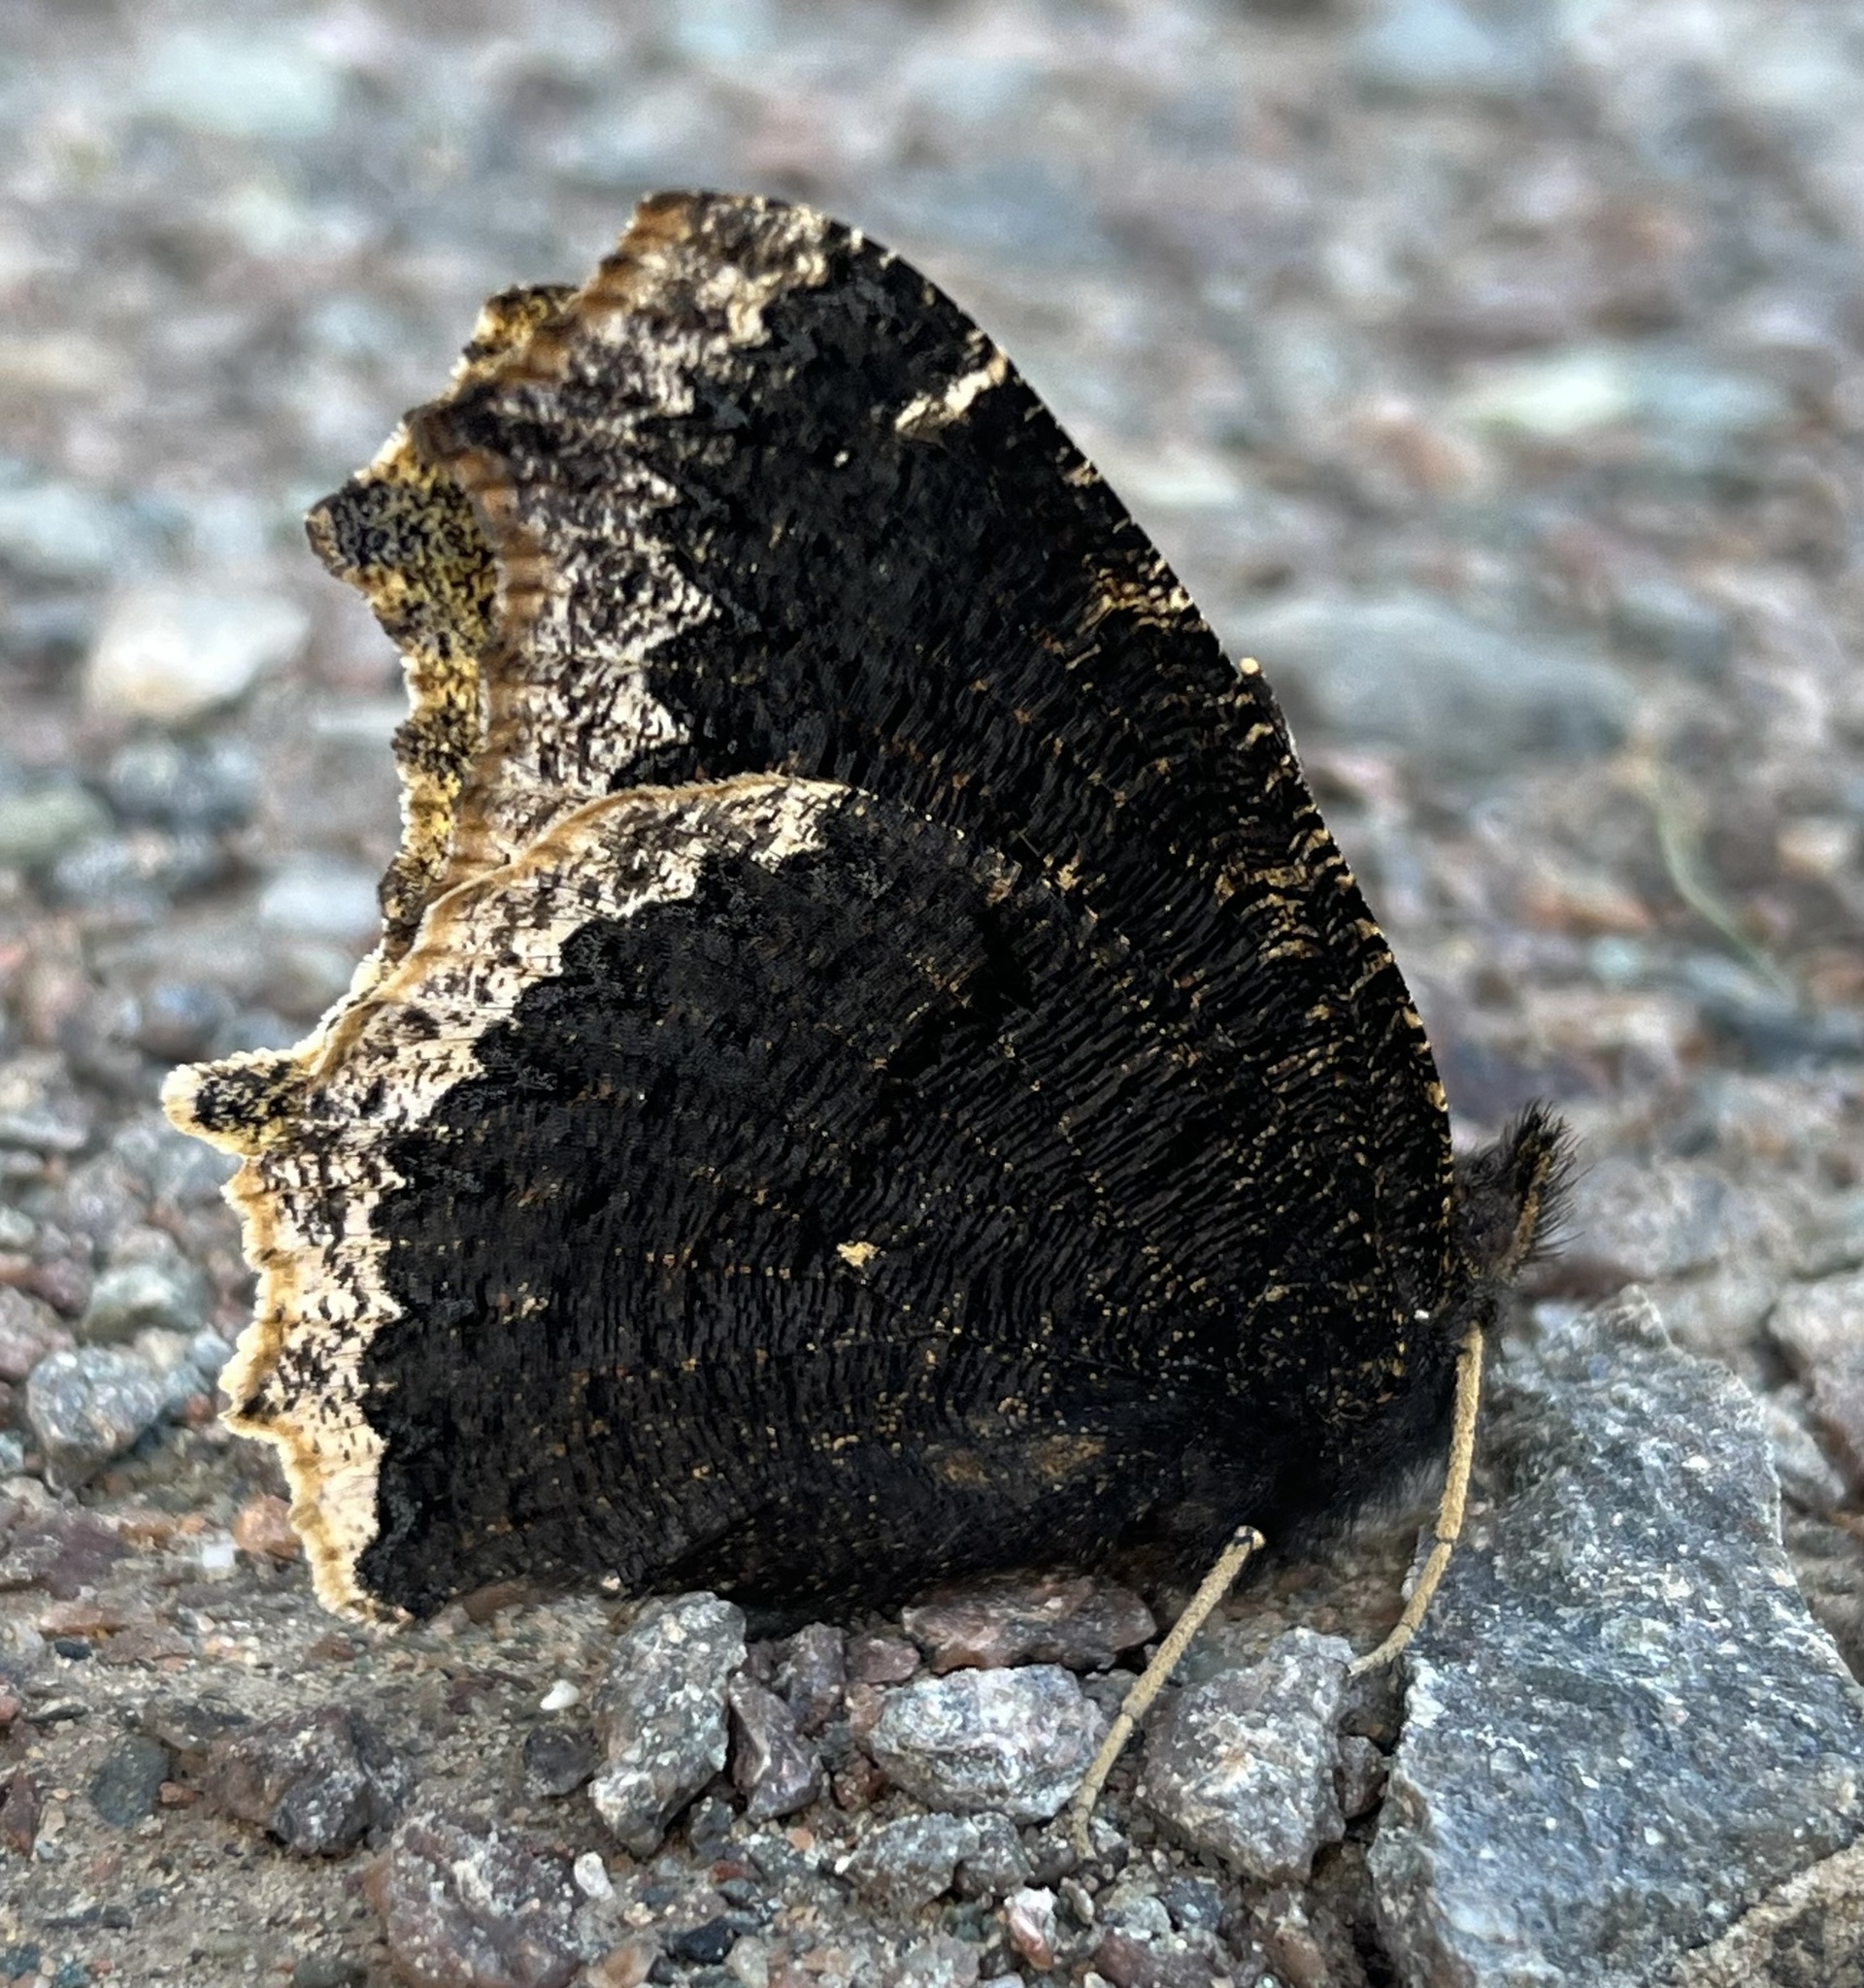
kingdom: Animalia
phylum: Arthropoda
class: Insecta
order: Lepidoptera
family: Nymphalidae
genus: Nymphalis
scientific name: Nymphalis antiopa
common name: Camberwell beauty
